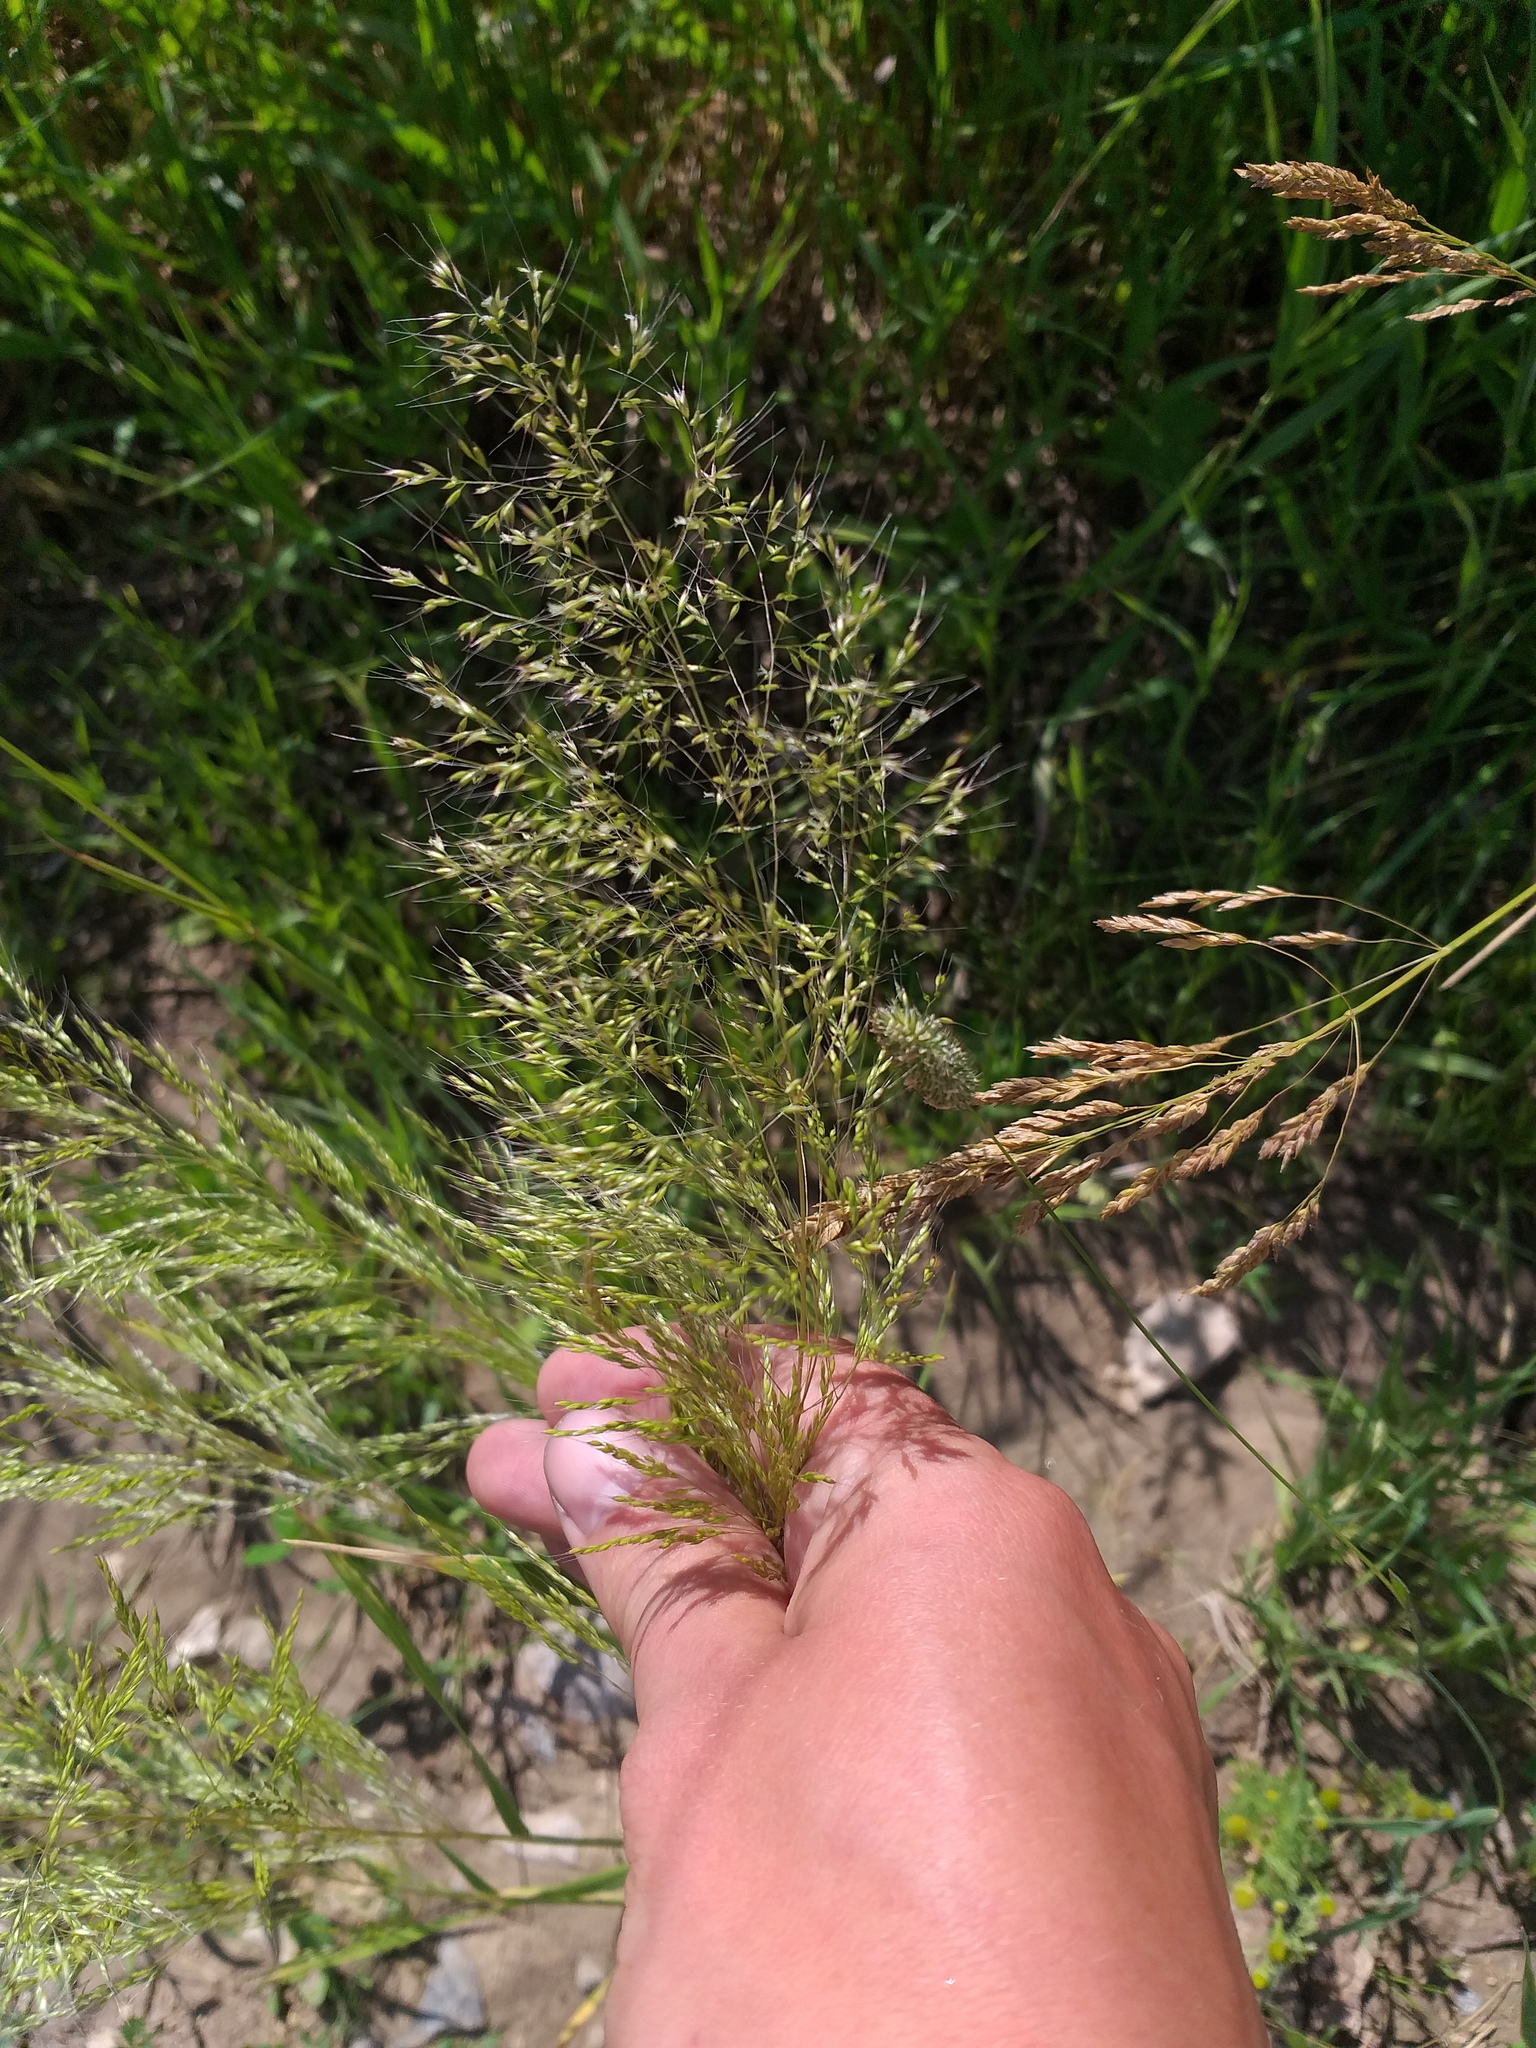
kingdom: Plantae
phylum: Tracheophyta
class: Liliopsida
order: Poales
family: Poaceae
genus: Apera
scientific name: Apera spica-venti
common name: Loose silky-bent
